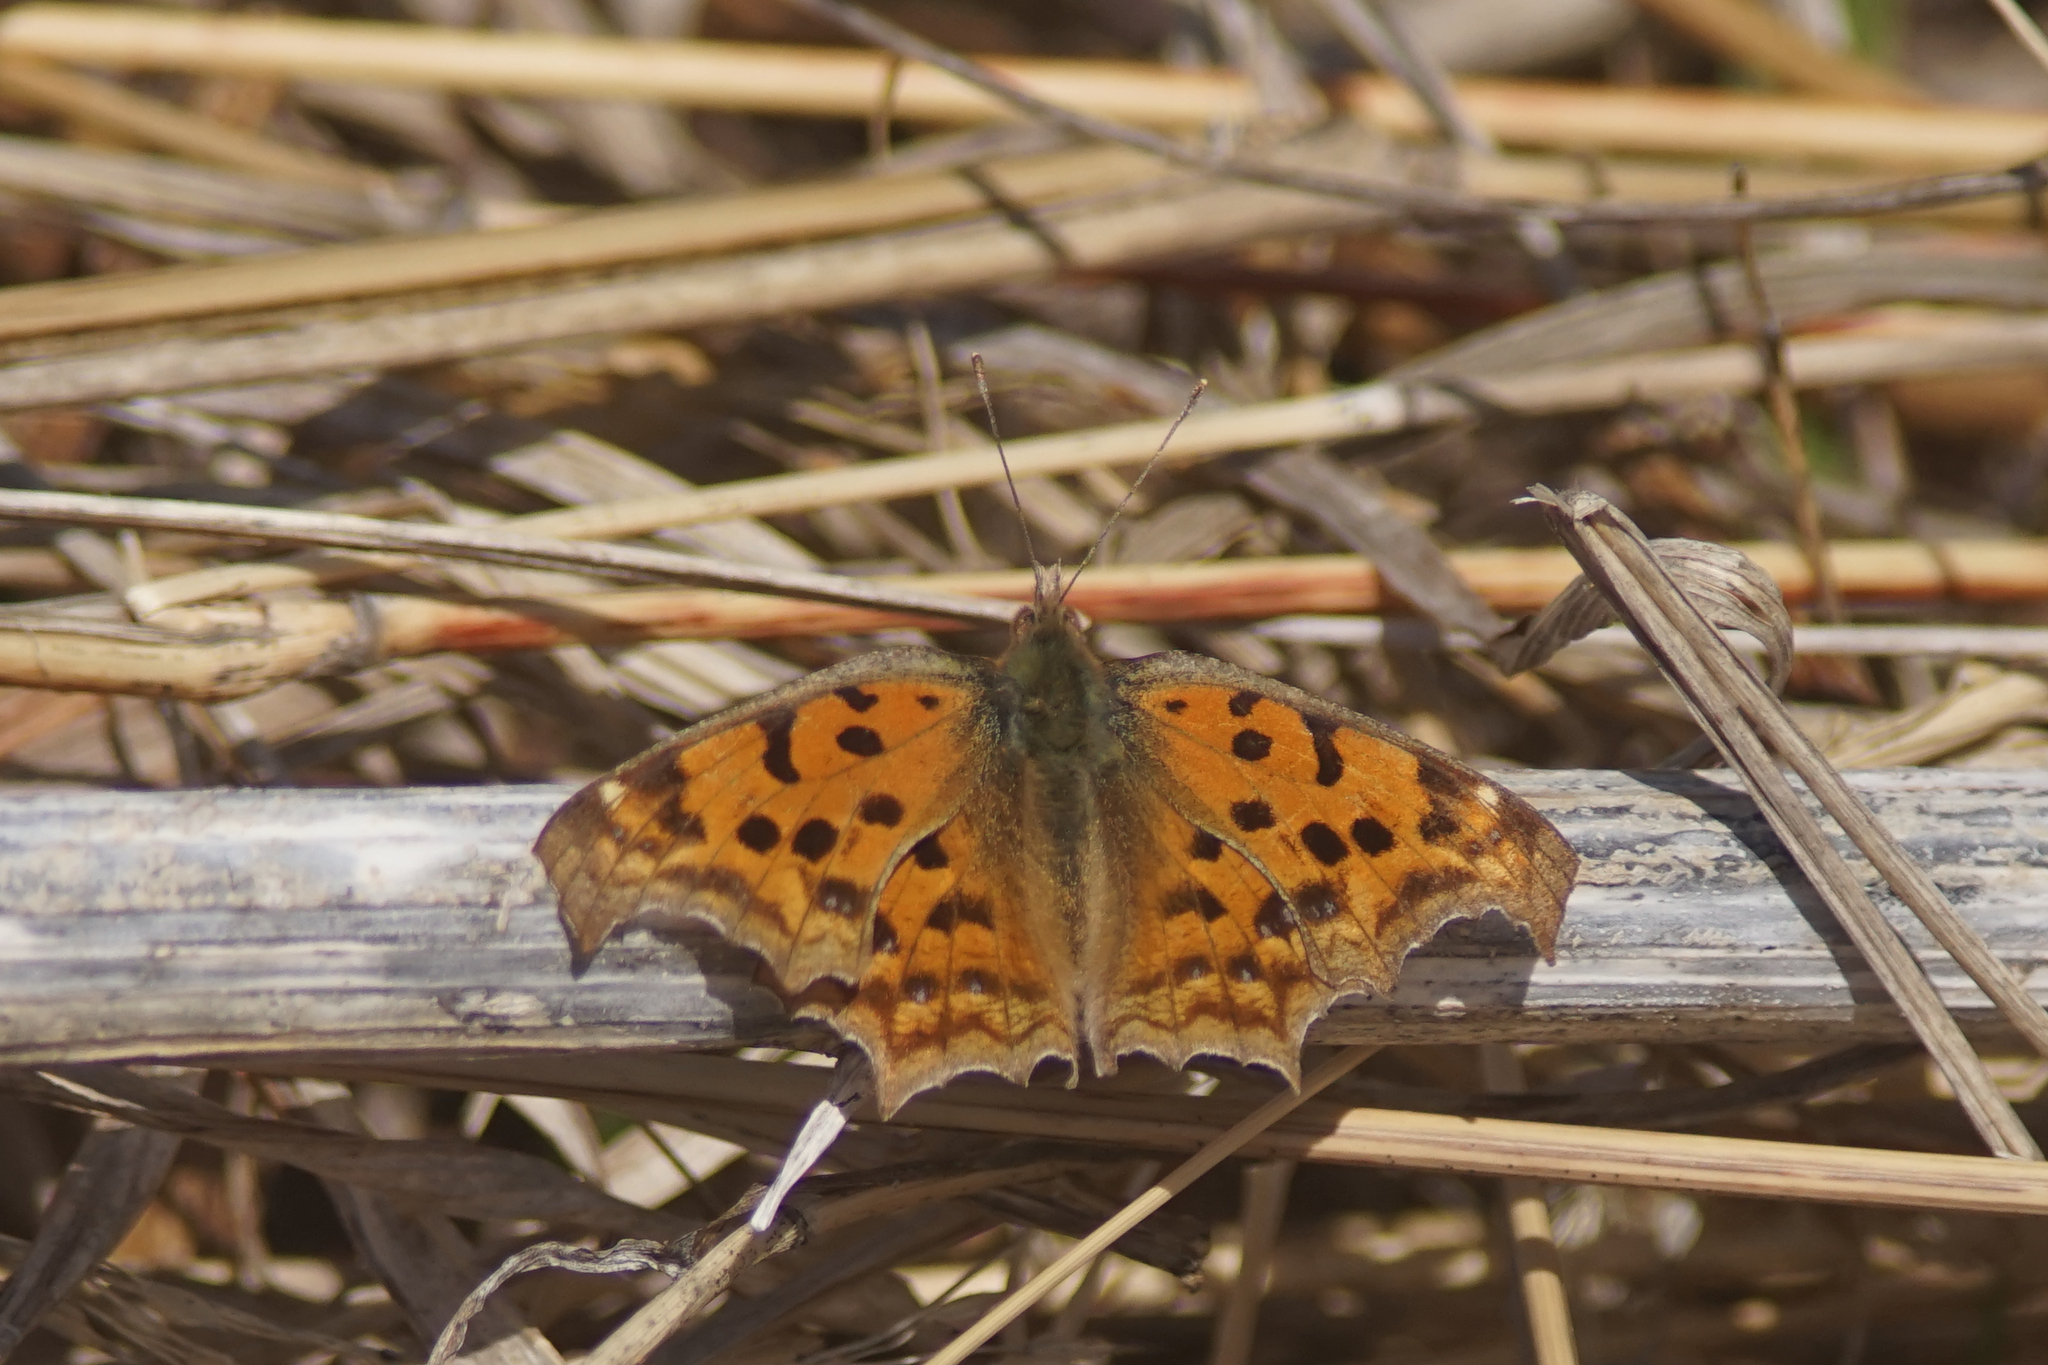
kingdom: Animalia
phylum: Arthropoda
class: Insecta
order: Lepidoptera
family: Nymphalidae
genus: Polygonia
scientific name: Polygonia c-aureum
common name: Asian comma
